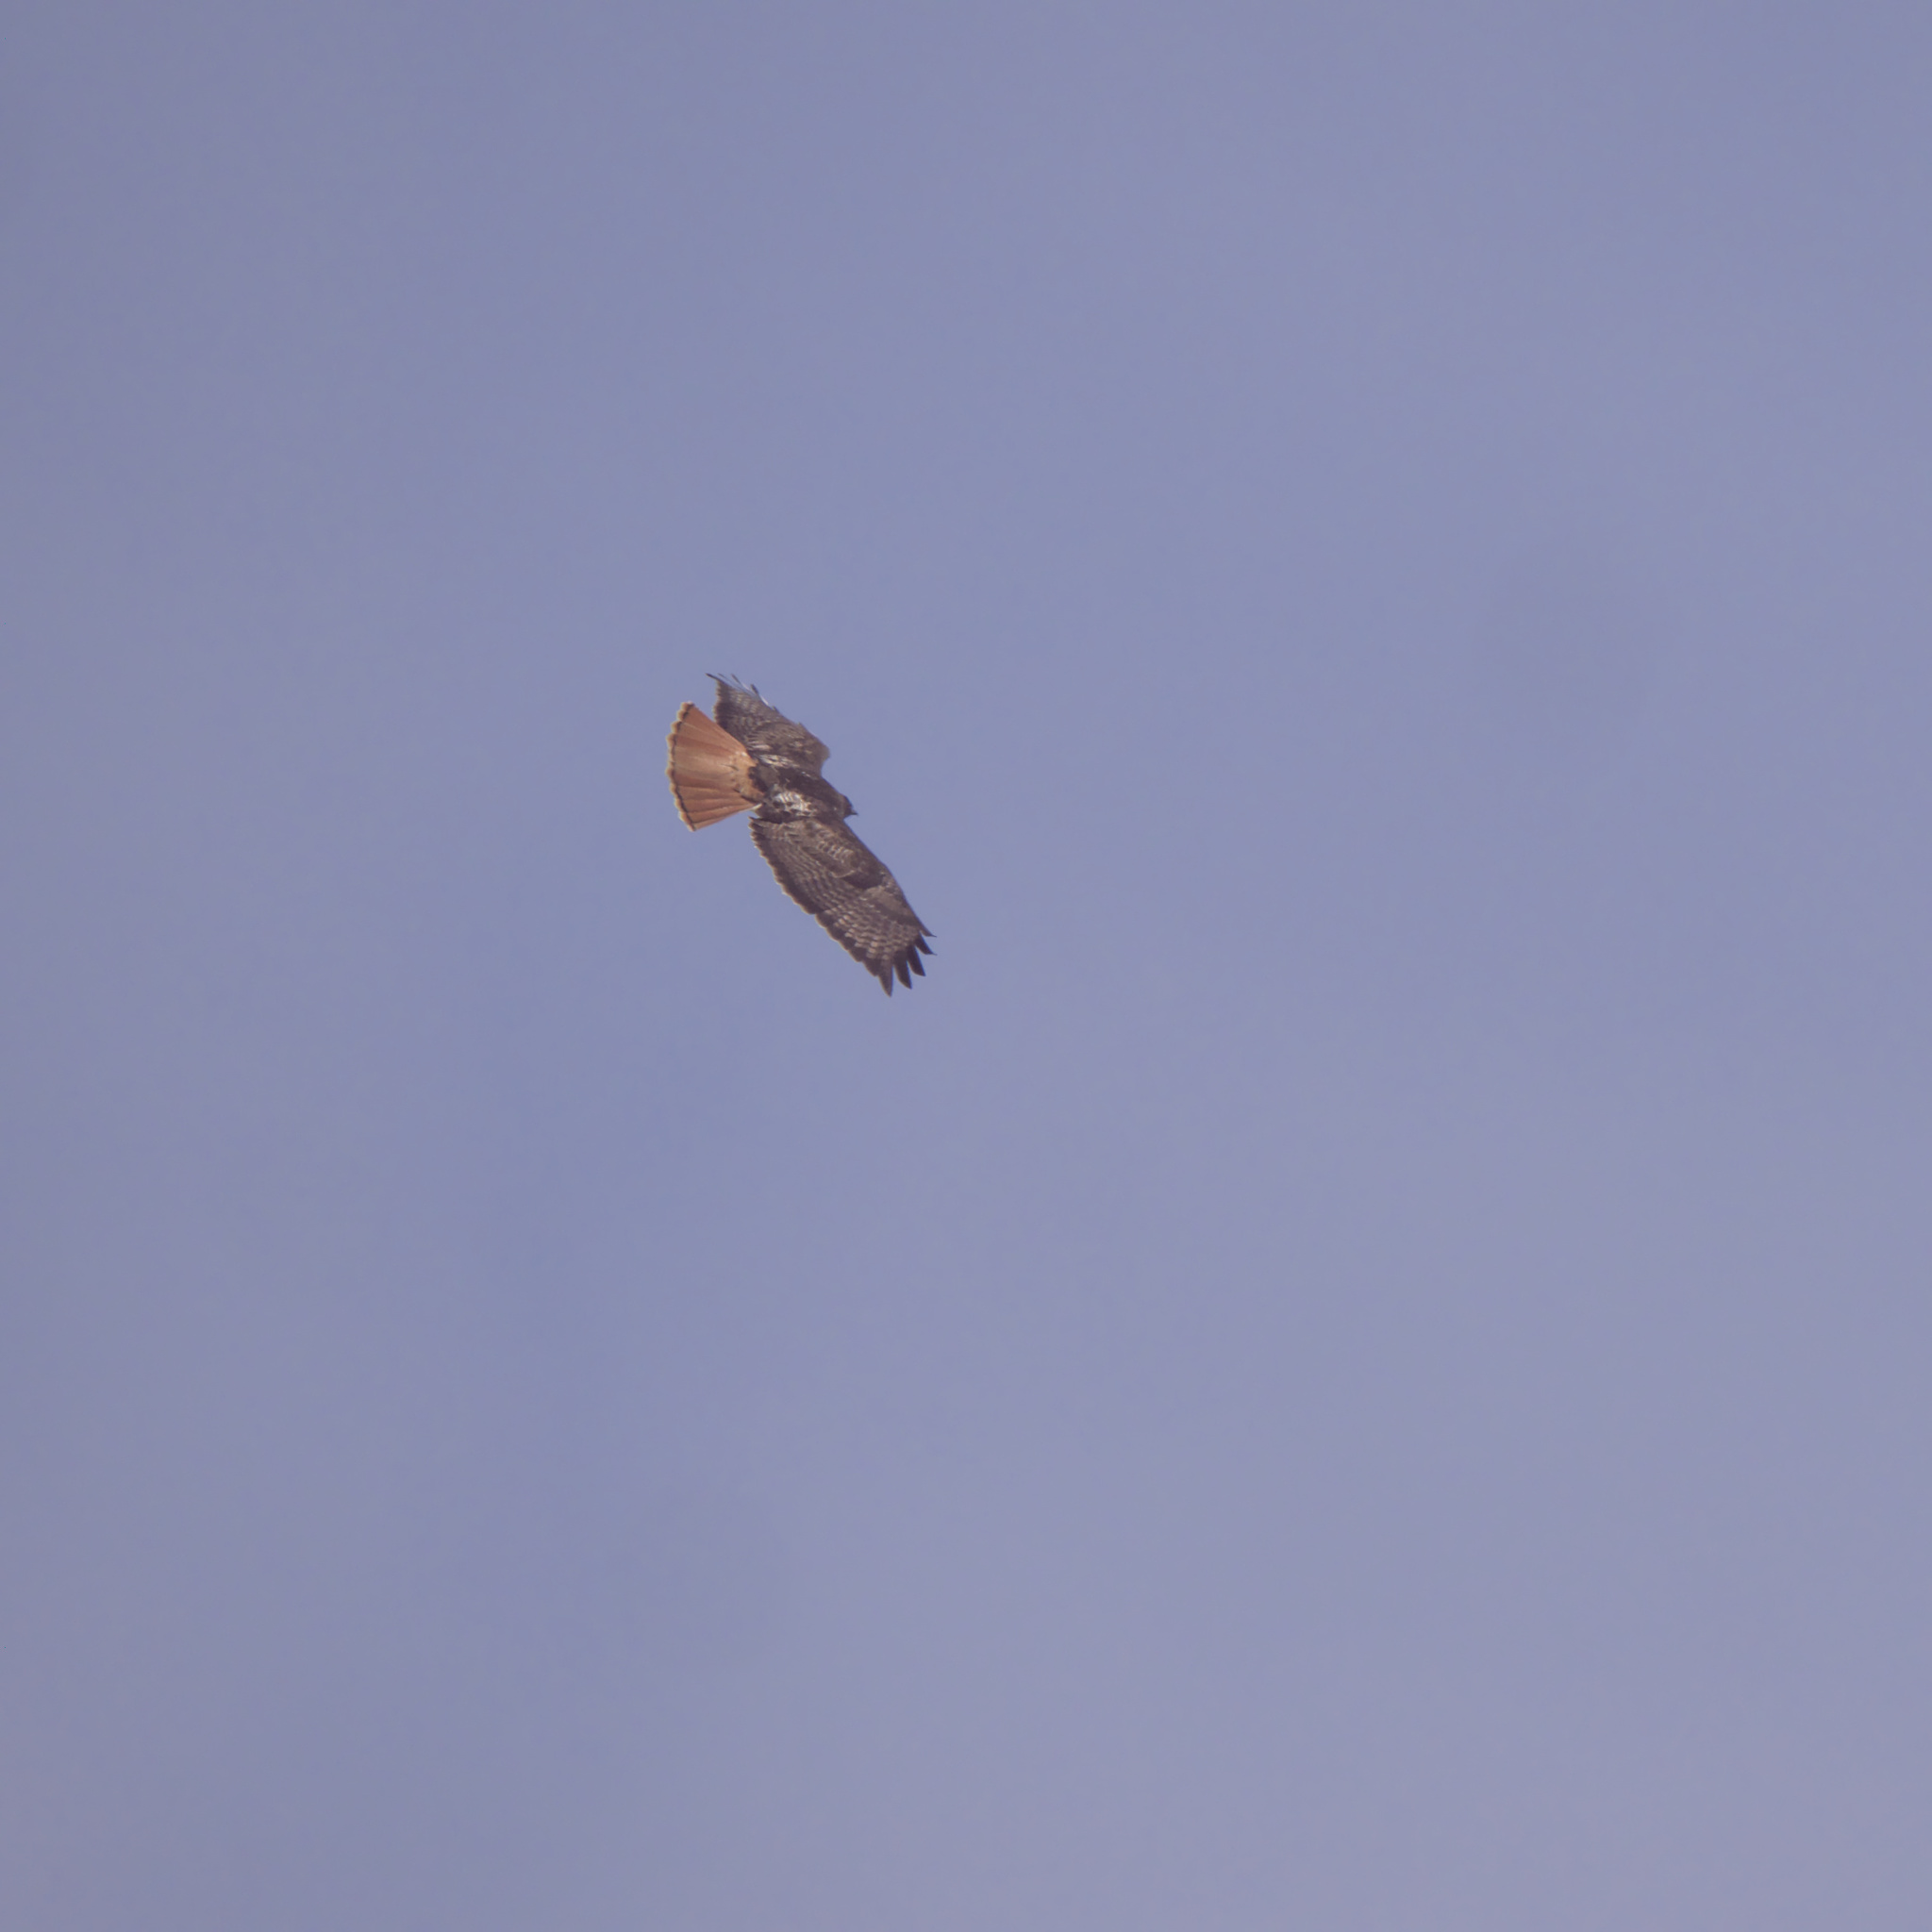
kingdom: Animalia
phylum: Chordata
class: Aves
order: Accipitriformes
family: Accipitridae
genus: Buteo
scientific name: Buteo jamaicensis
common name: Red-tailed hawk
